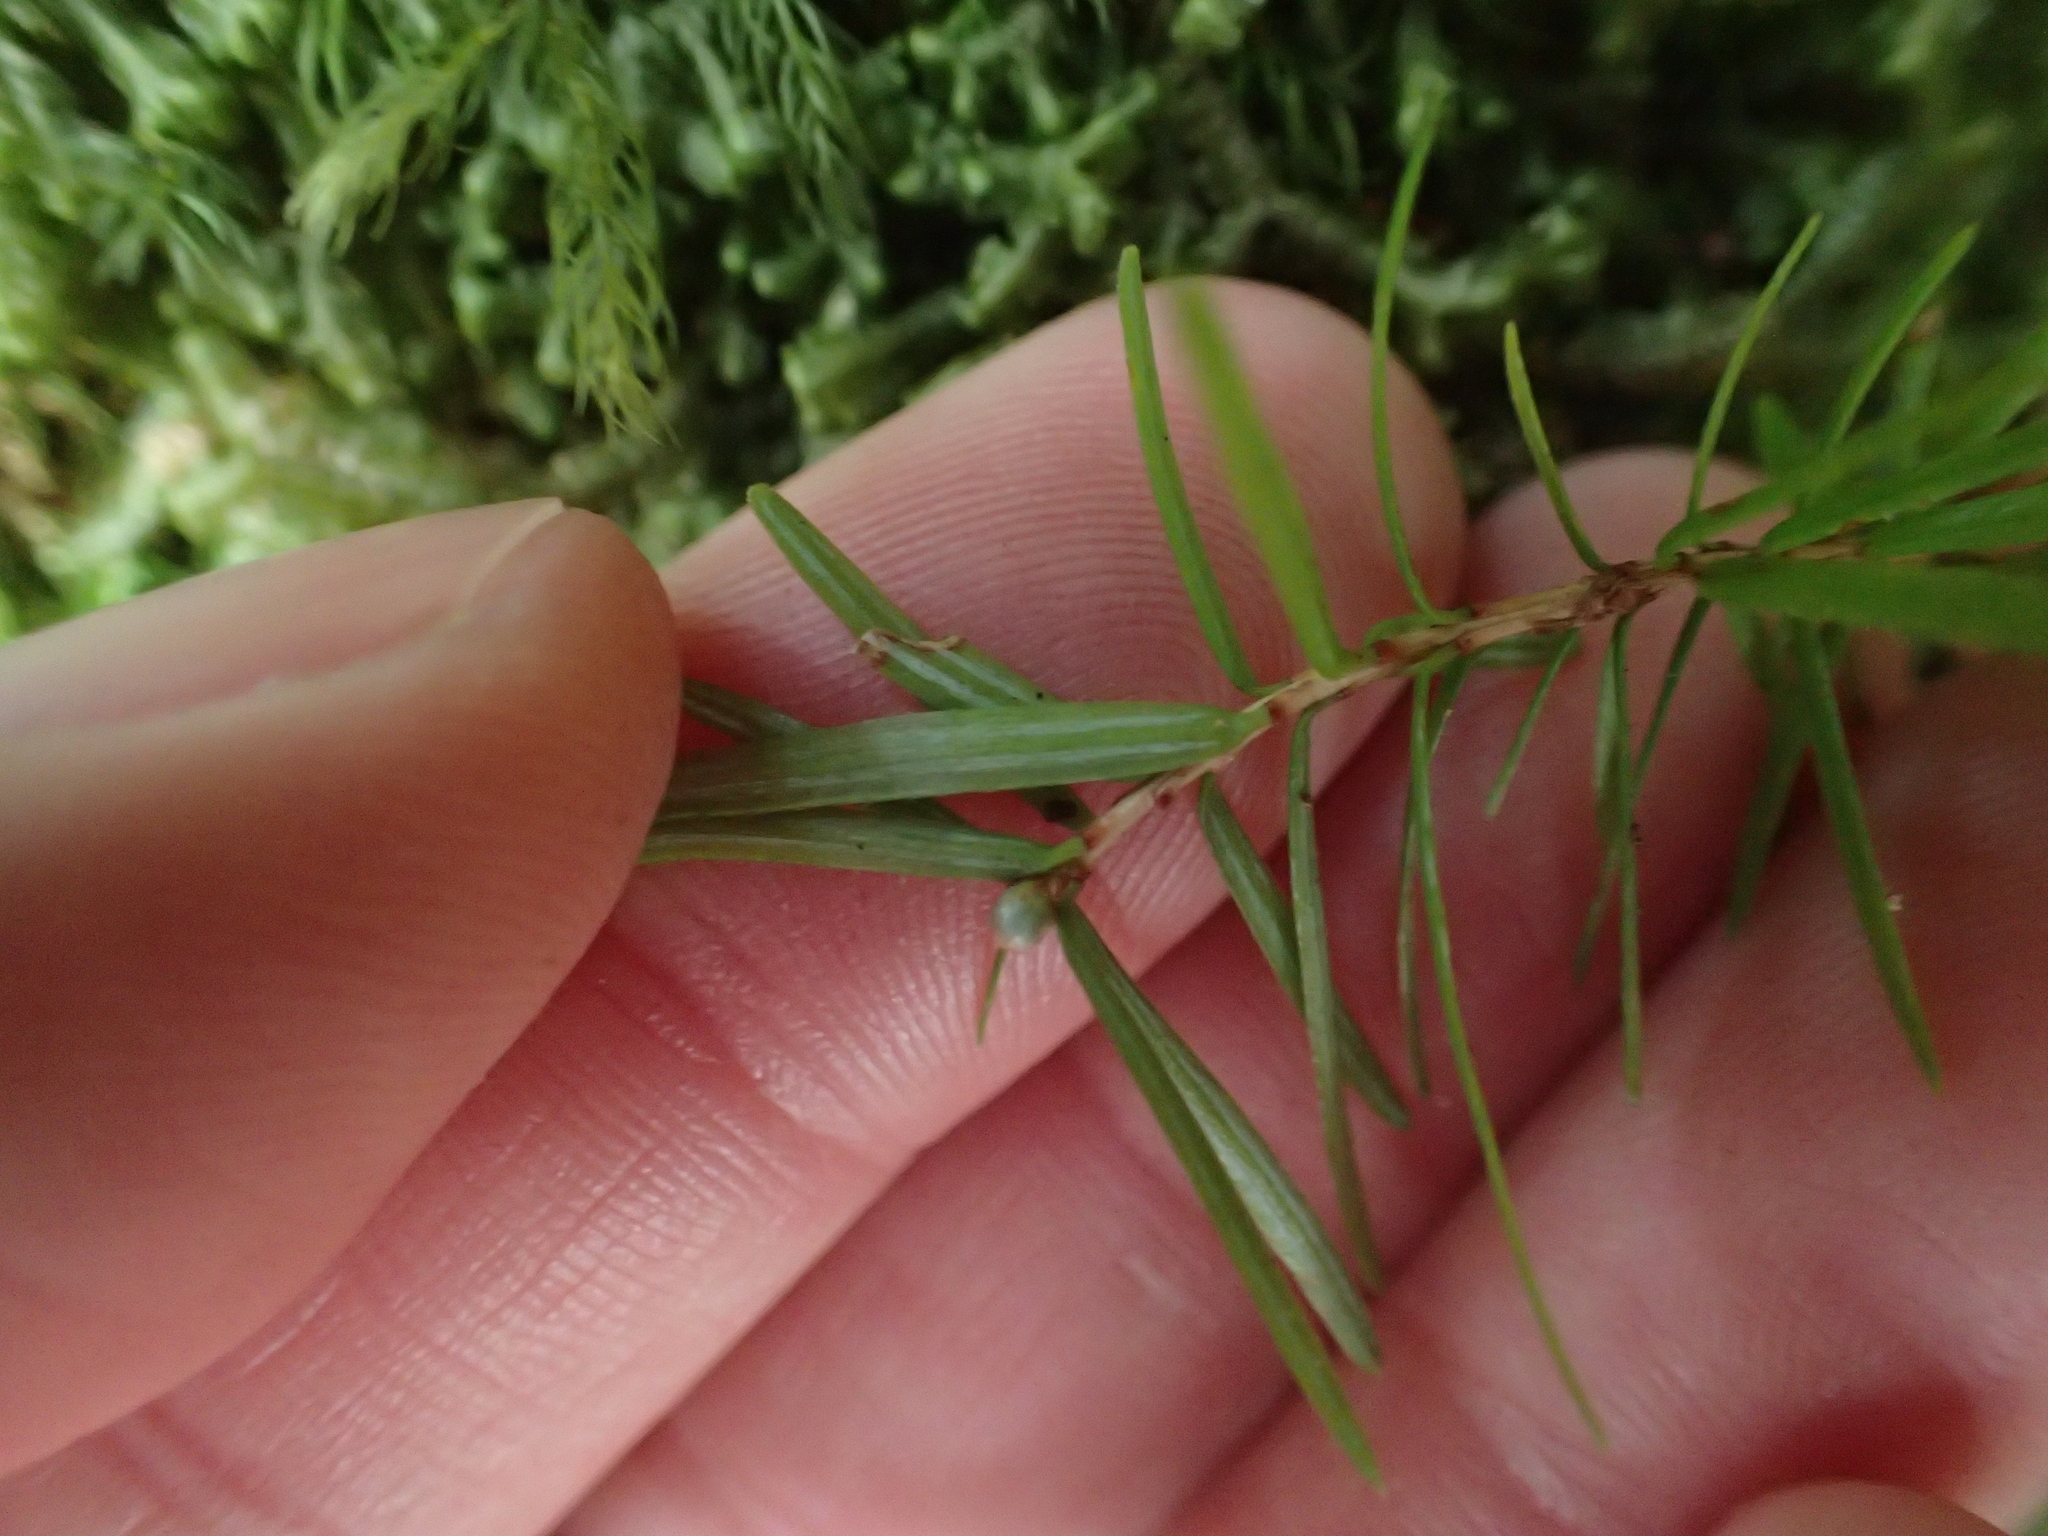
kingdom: Plantae
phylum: Tracheophyta
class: Pinopsida
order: Pinales
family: Pinaceae
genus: Tsuga
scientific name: Tsuga chinensis
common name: Chinese hemlock
